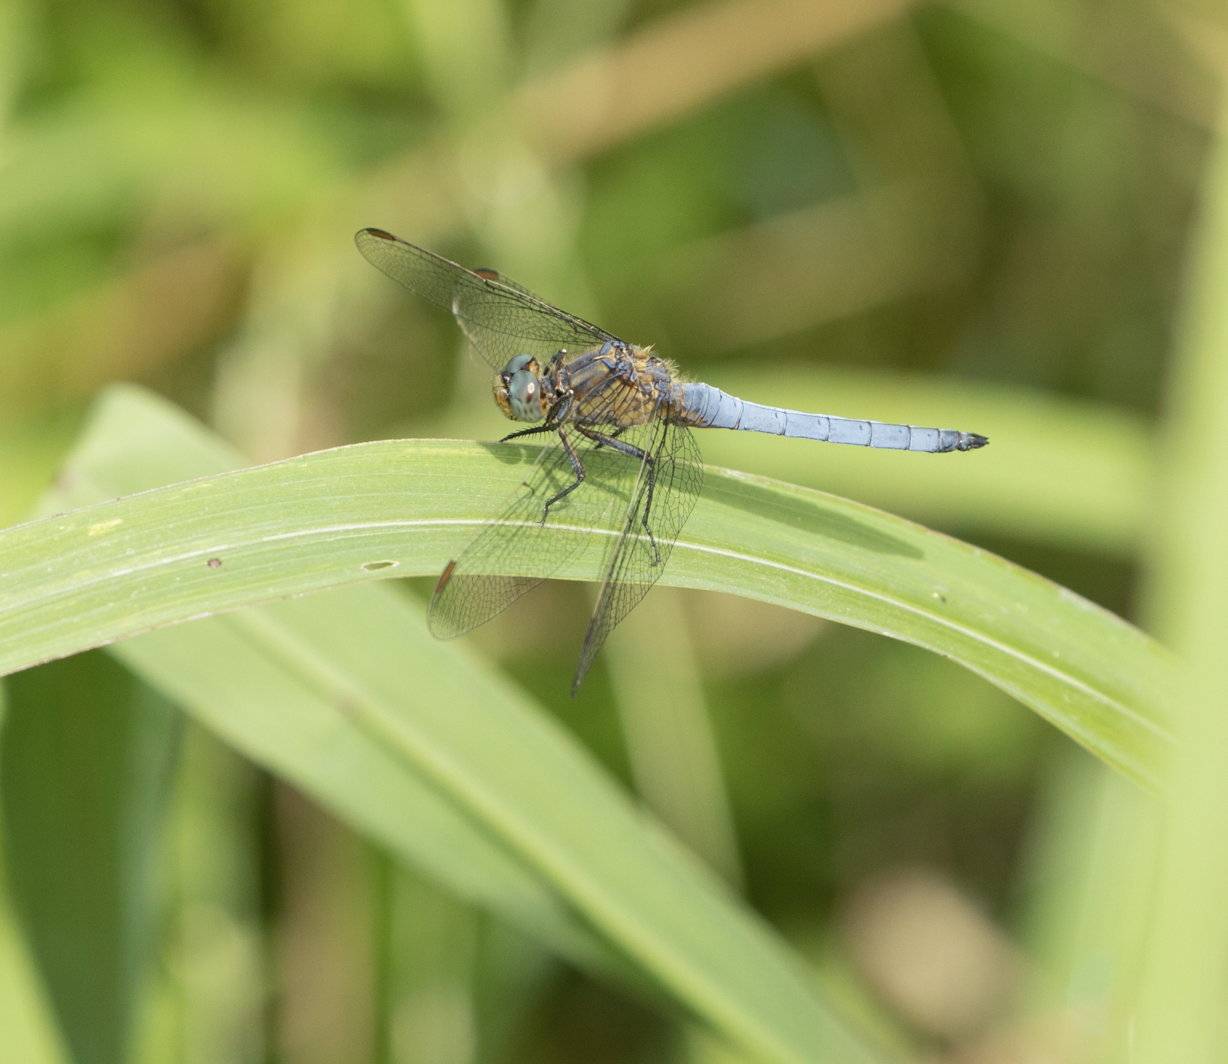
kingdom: Animalia
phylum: Arthropoda
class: Insecta
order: Odonata
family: Libellulidae
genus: Orthetrum
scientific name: Orthetrum coerulescens
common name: Keeled skimmer
